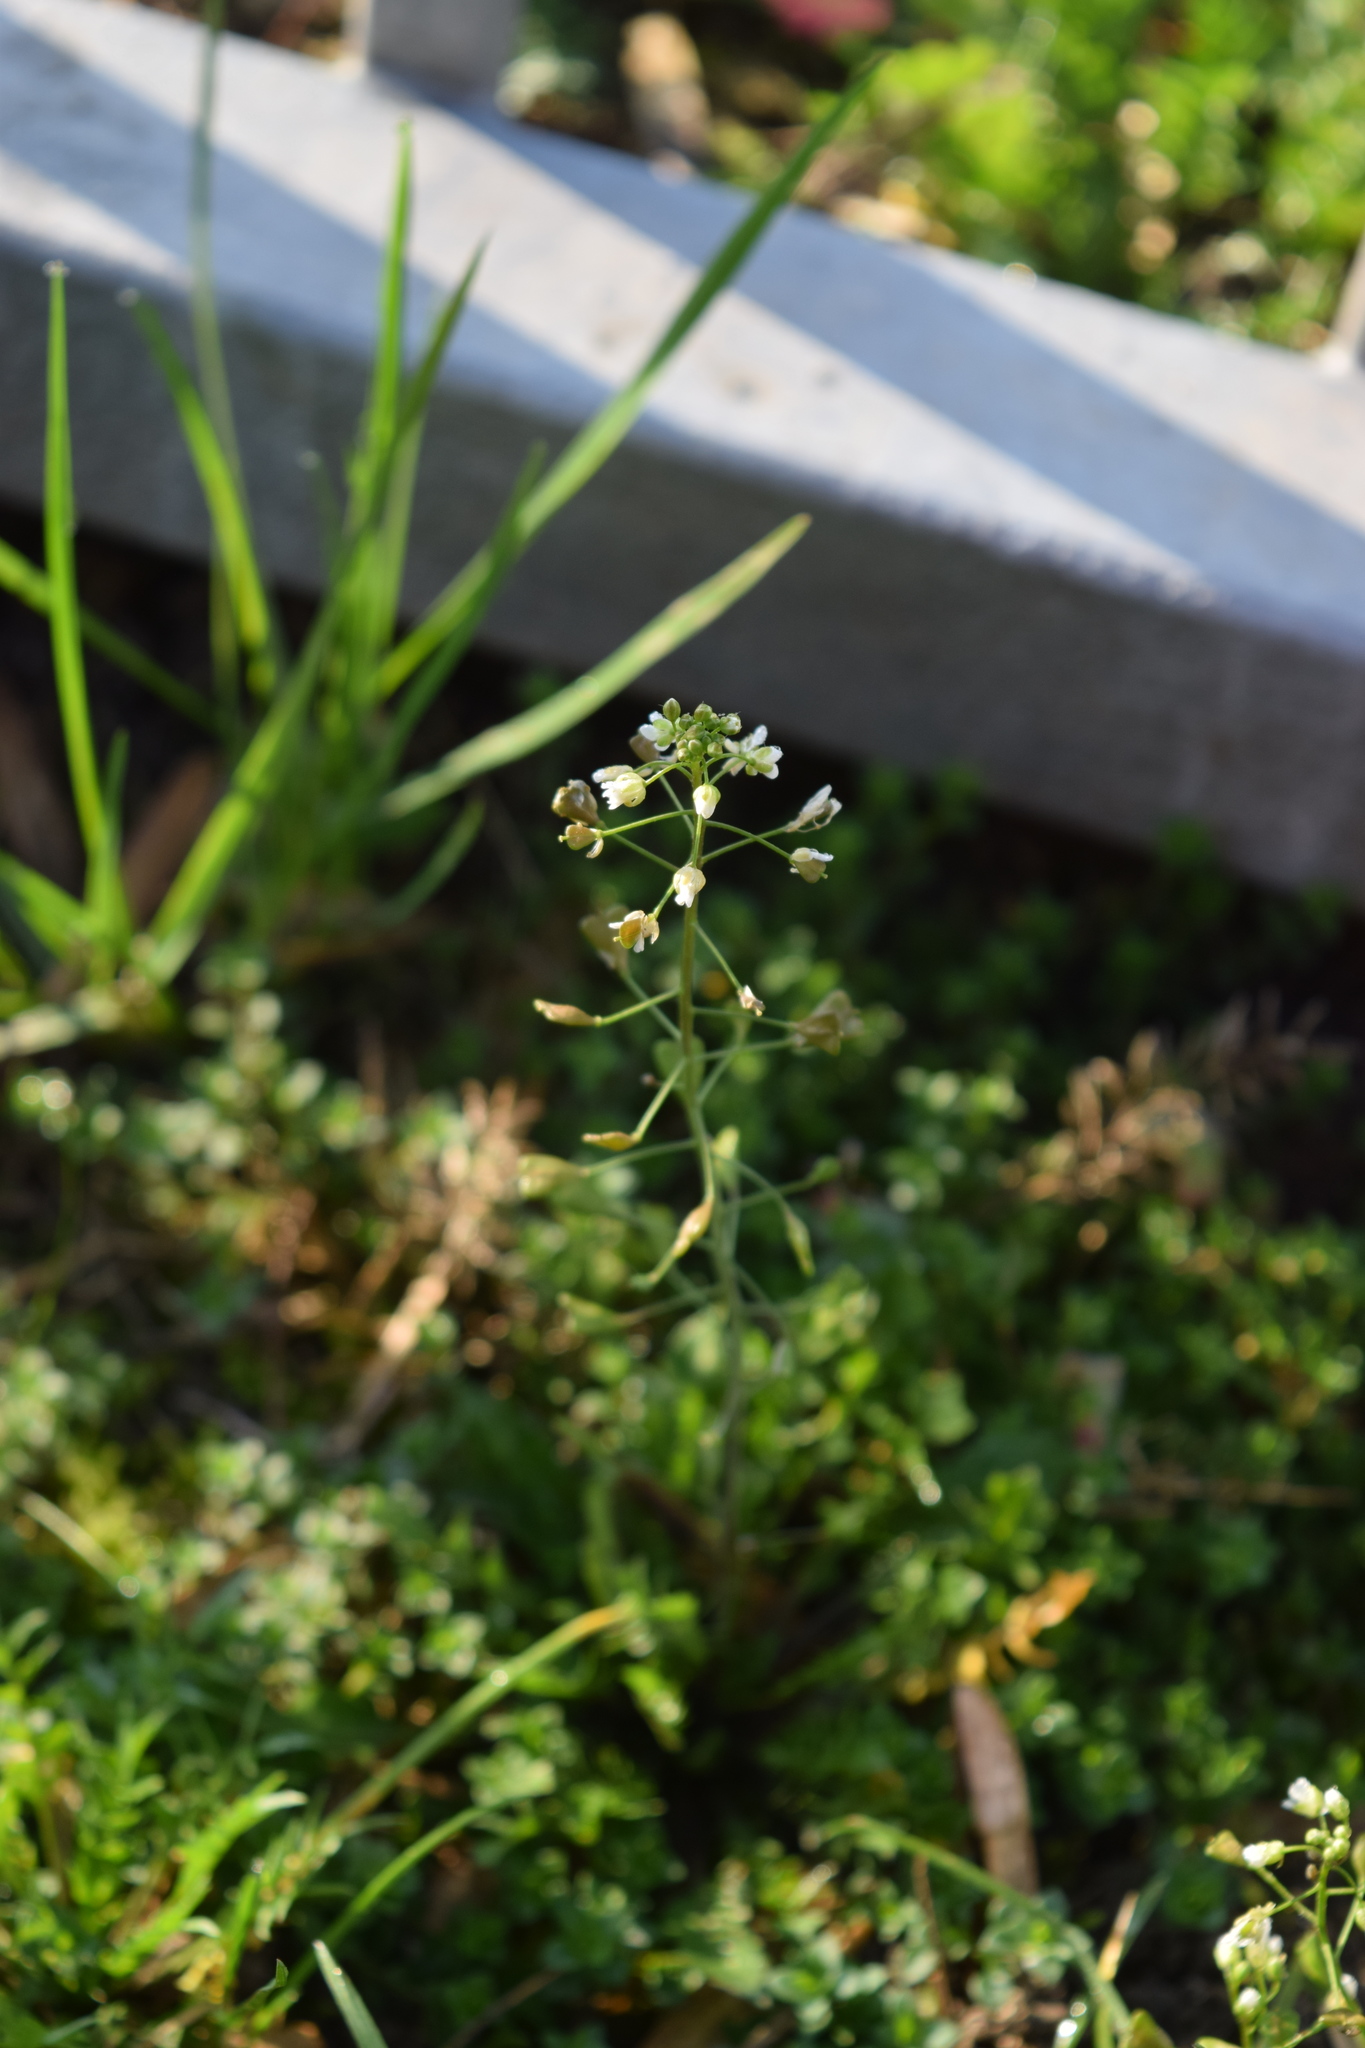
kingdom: Plantae
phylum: Tracheophyta
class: Magnoliopsida
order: Brassicales
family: Brassicaceae
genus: Capsella
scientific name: Capsella bursa-pastoris
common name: Shepherd's purse
